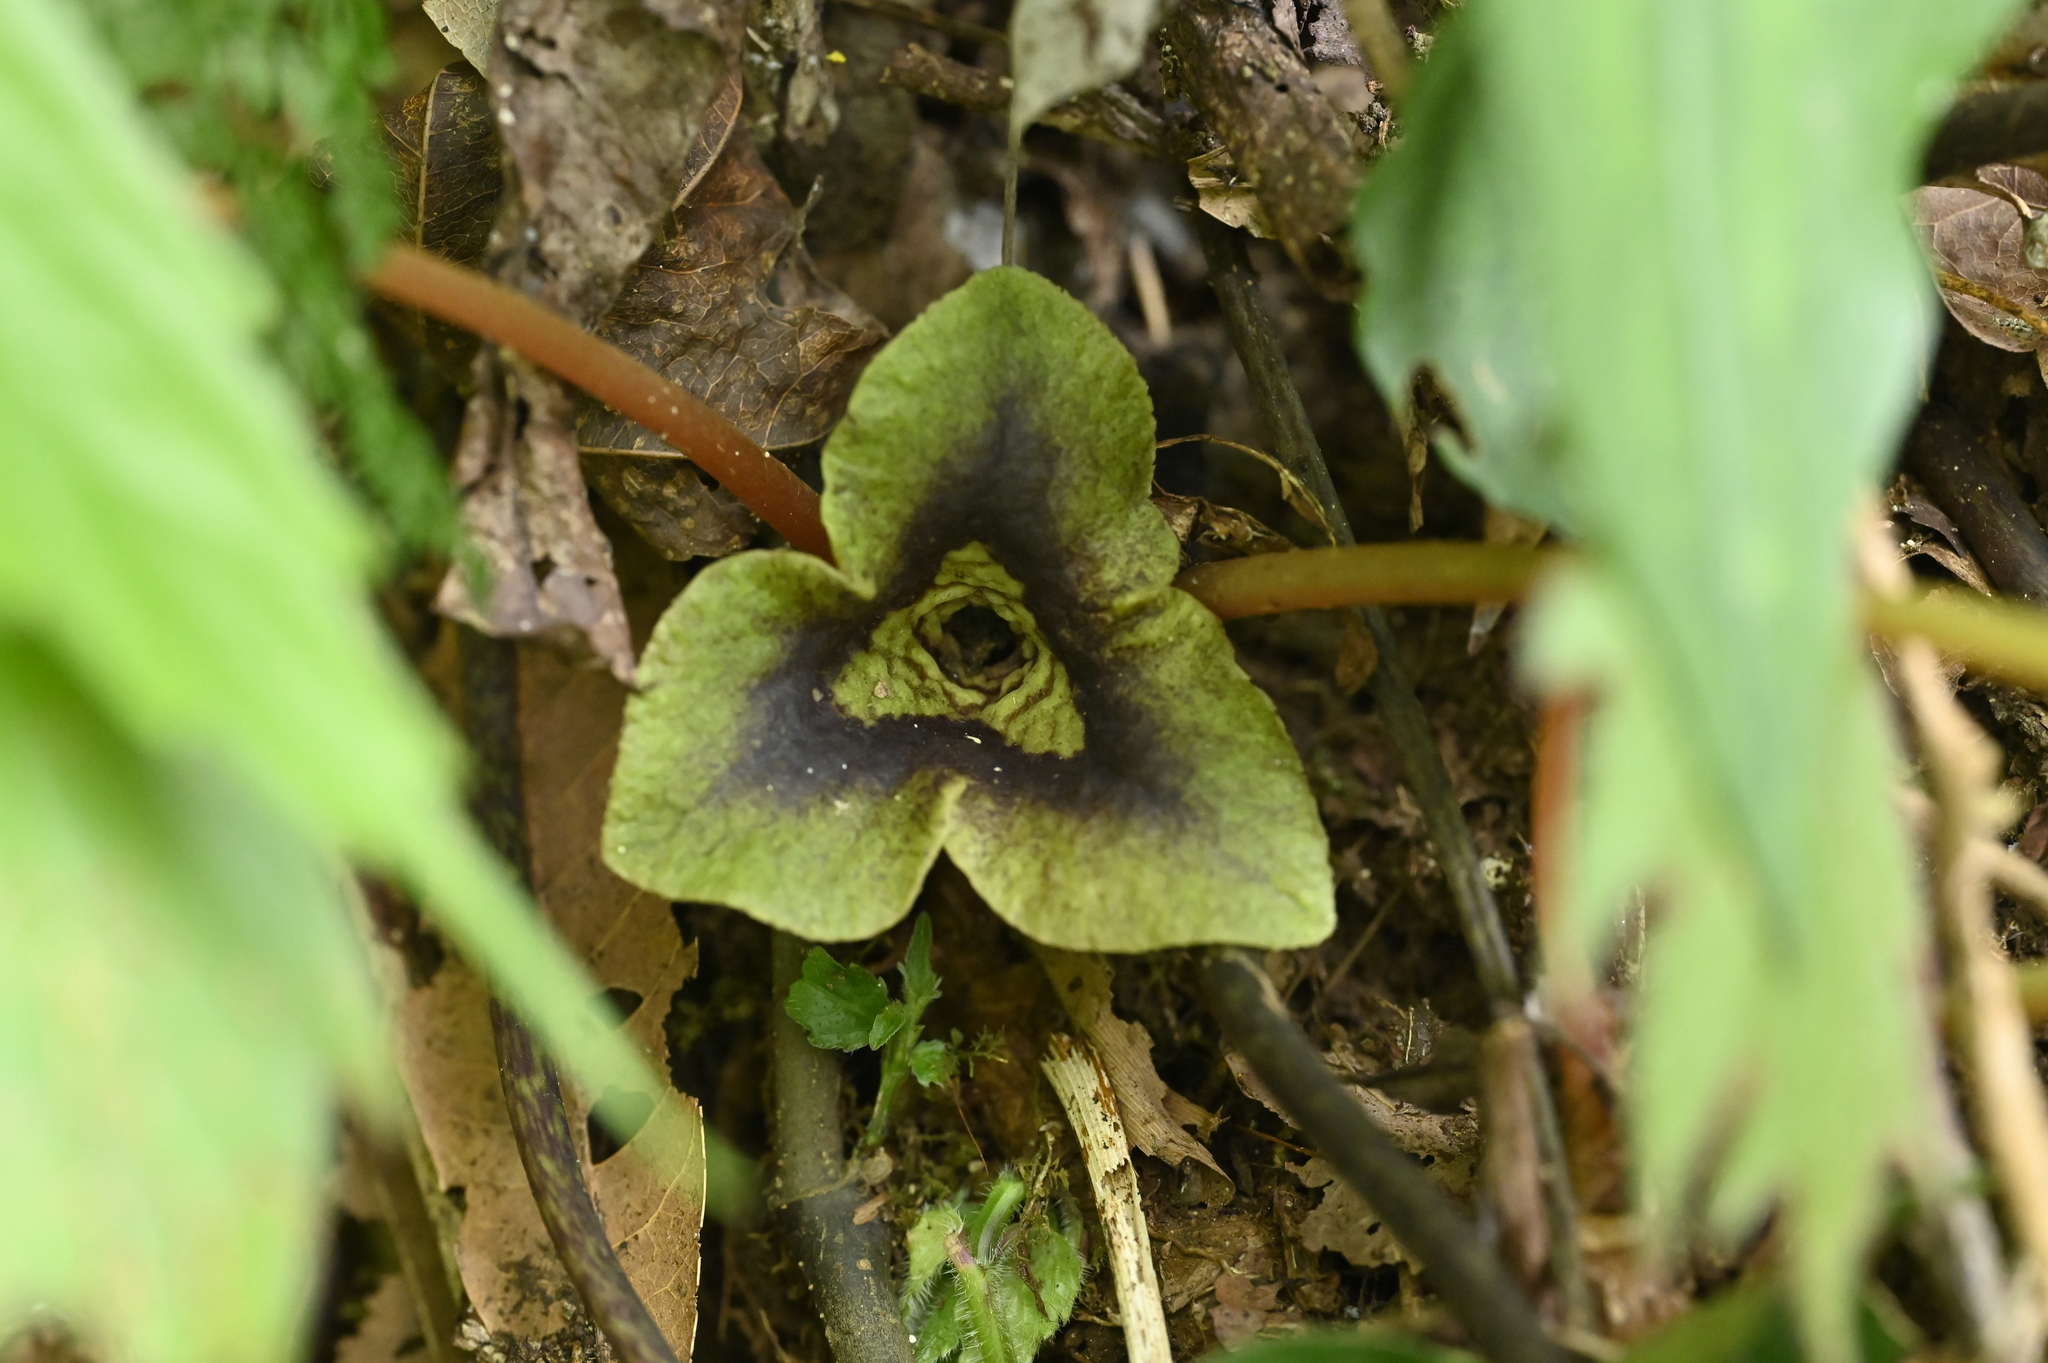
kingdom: Plantae
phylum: Tracheophyta
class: Magnoliopsida
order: Piperales
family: Aristolochiaceae
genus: Asarum
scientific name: Asarum hypogynum
